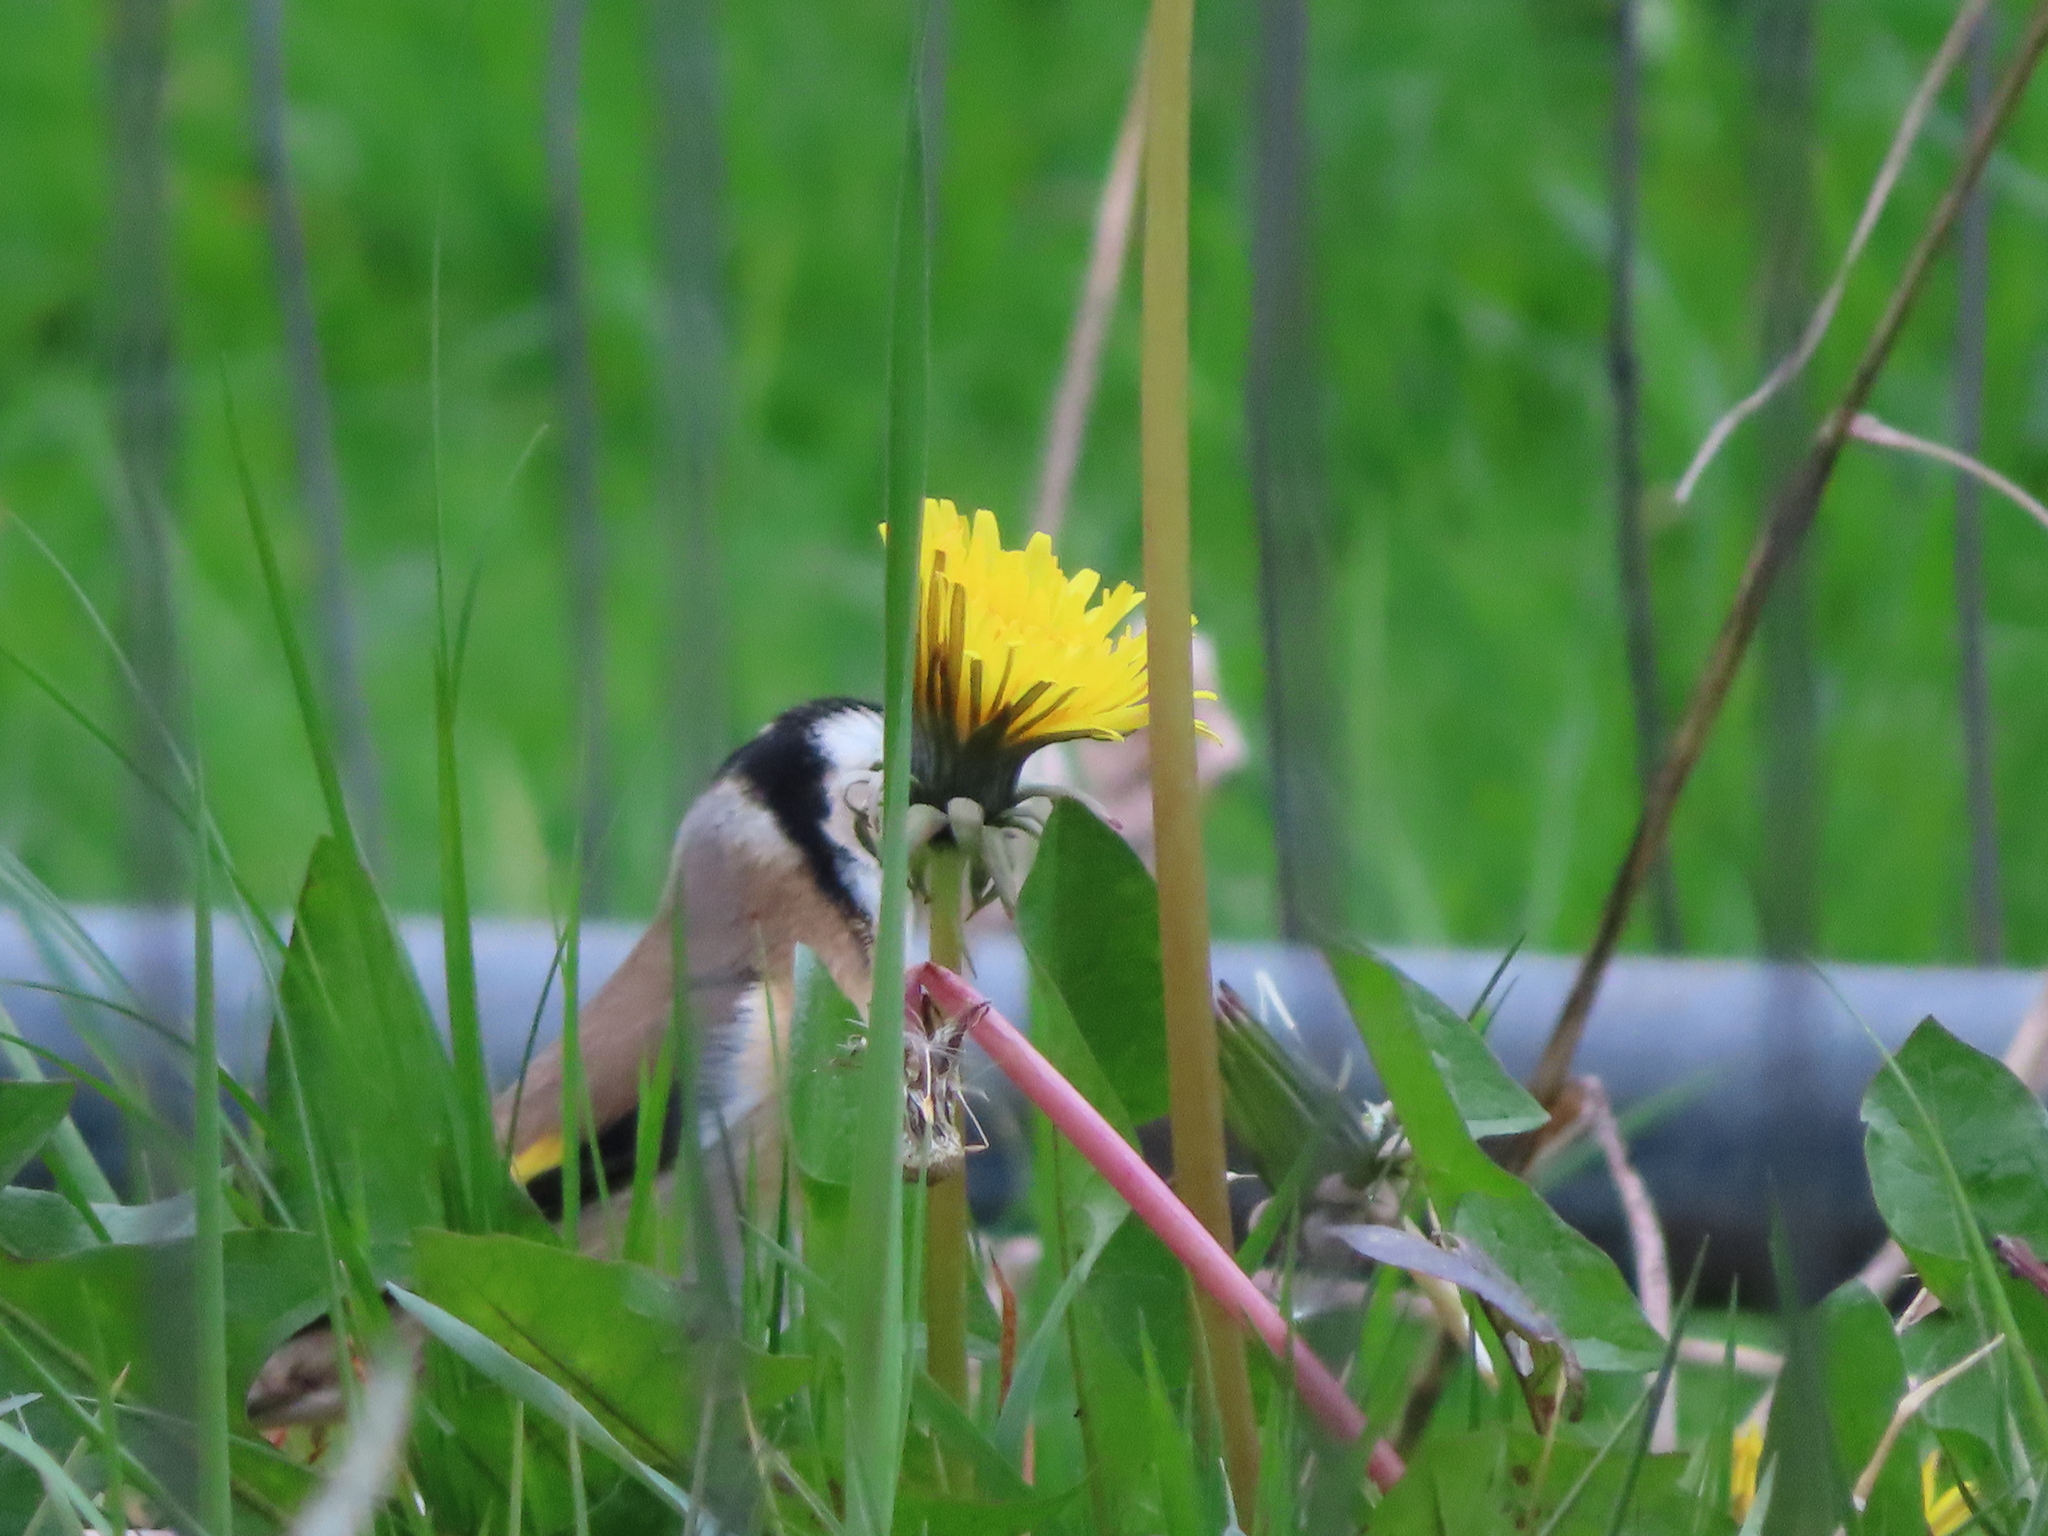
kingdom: Animalia
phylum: Chordata
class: Aves
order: Passeriformes
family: Fringillidae
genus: Carduelis
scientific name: Carduelis carduelis
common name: European goldfinch
